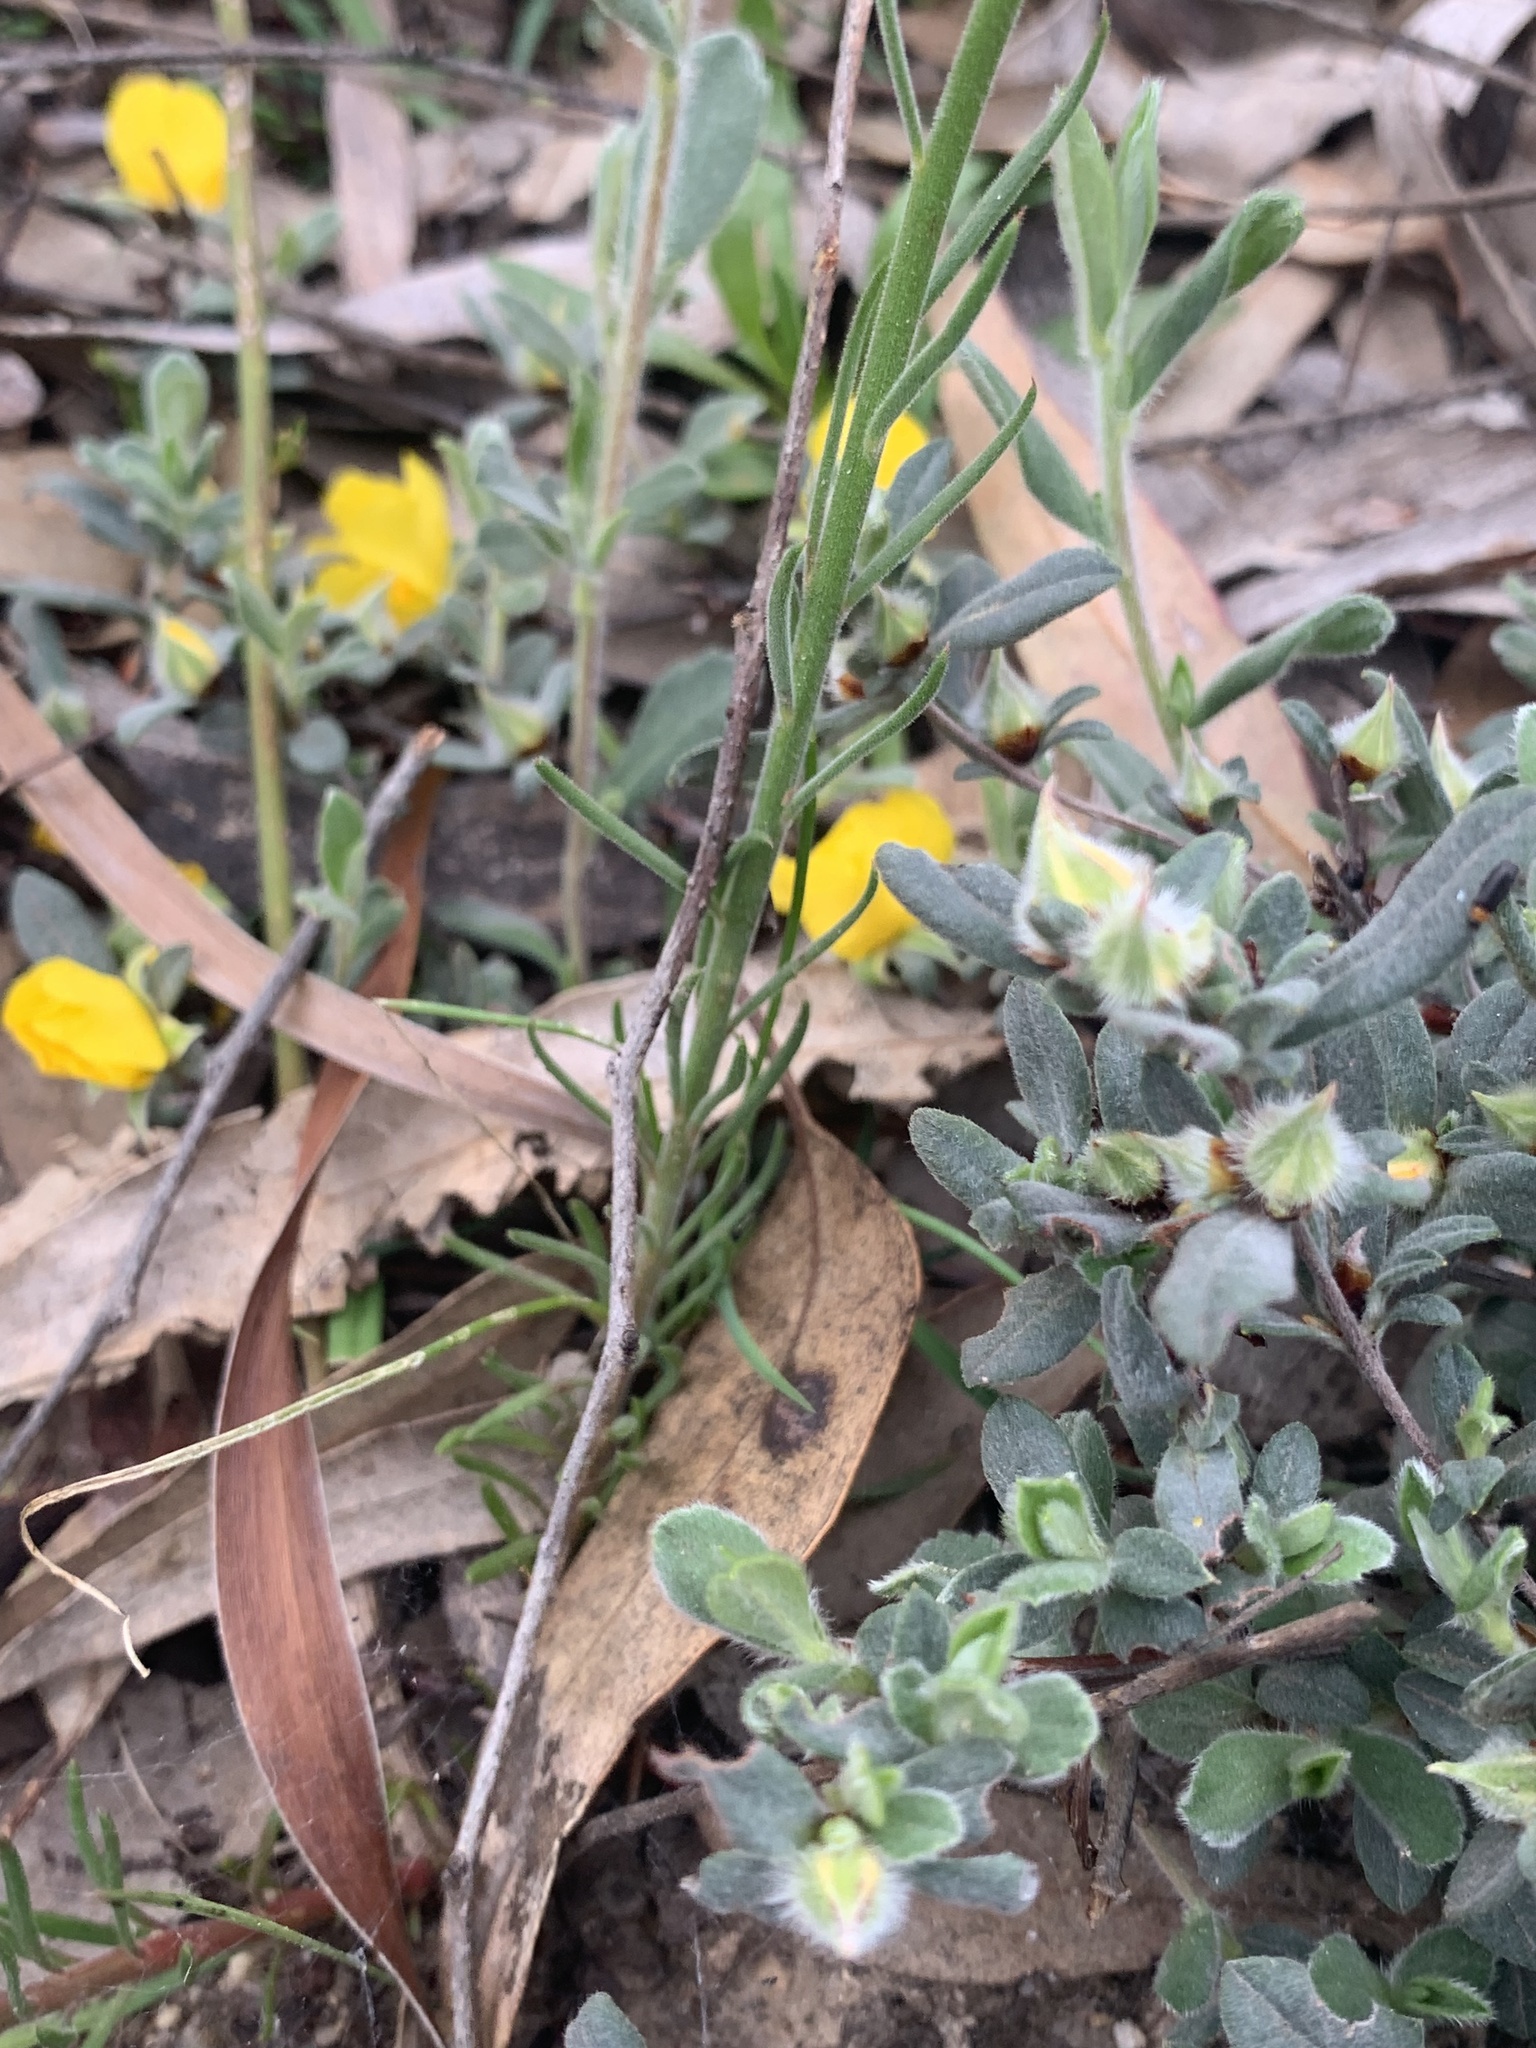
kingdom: Plantae
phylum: Tracheophyta
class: Magnoliopsida
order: Celastrales
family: Celastraceae
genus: Stackhousia
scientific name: Stackhousia monogyna
